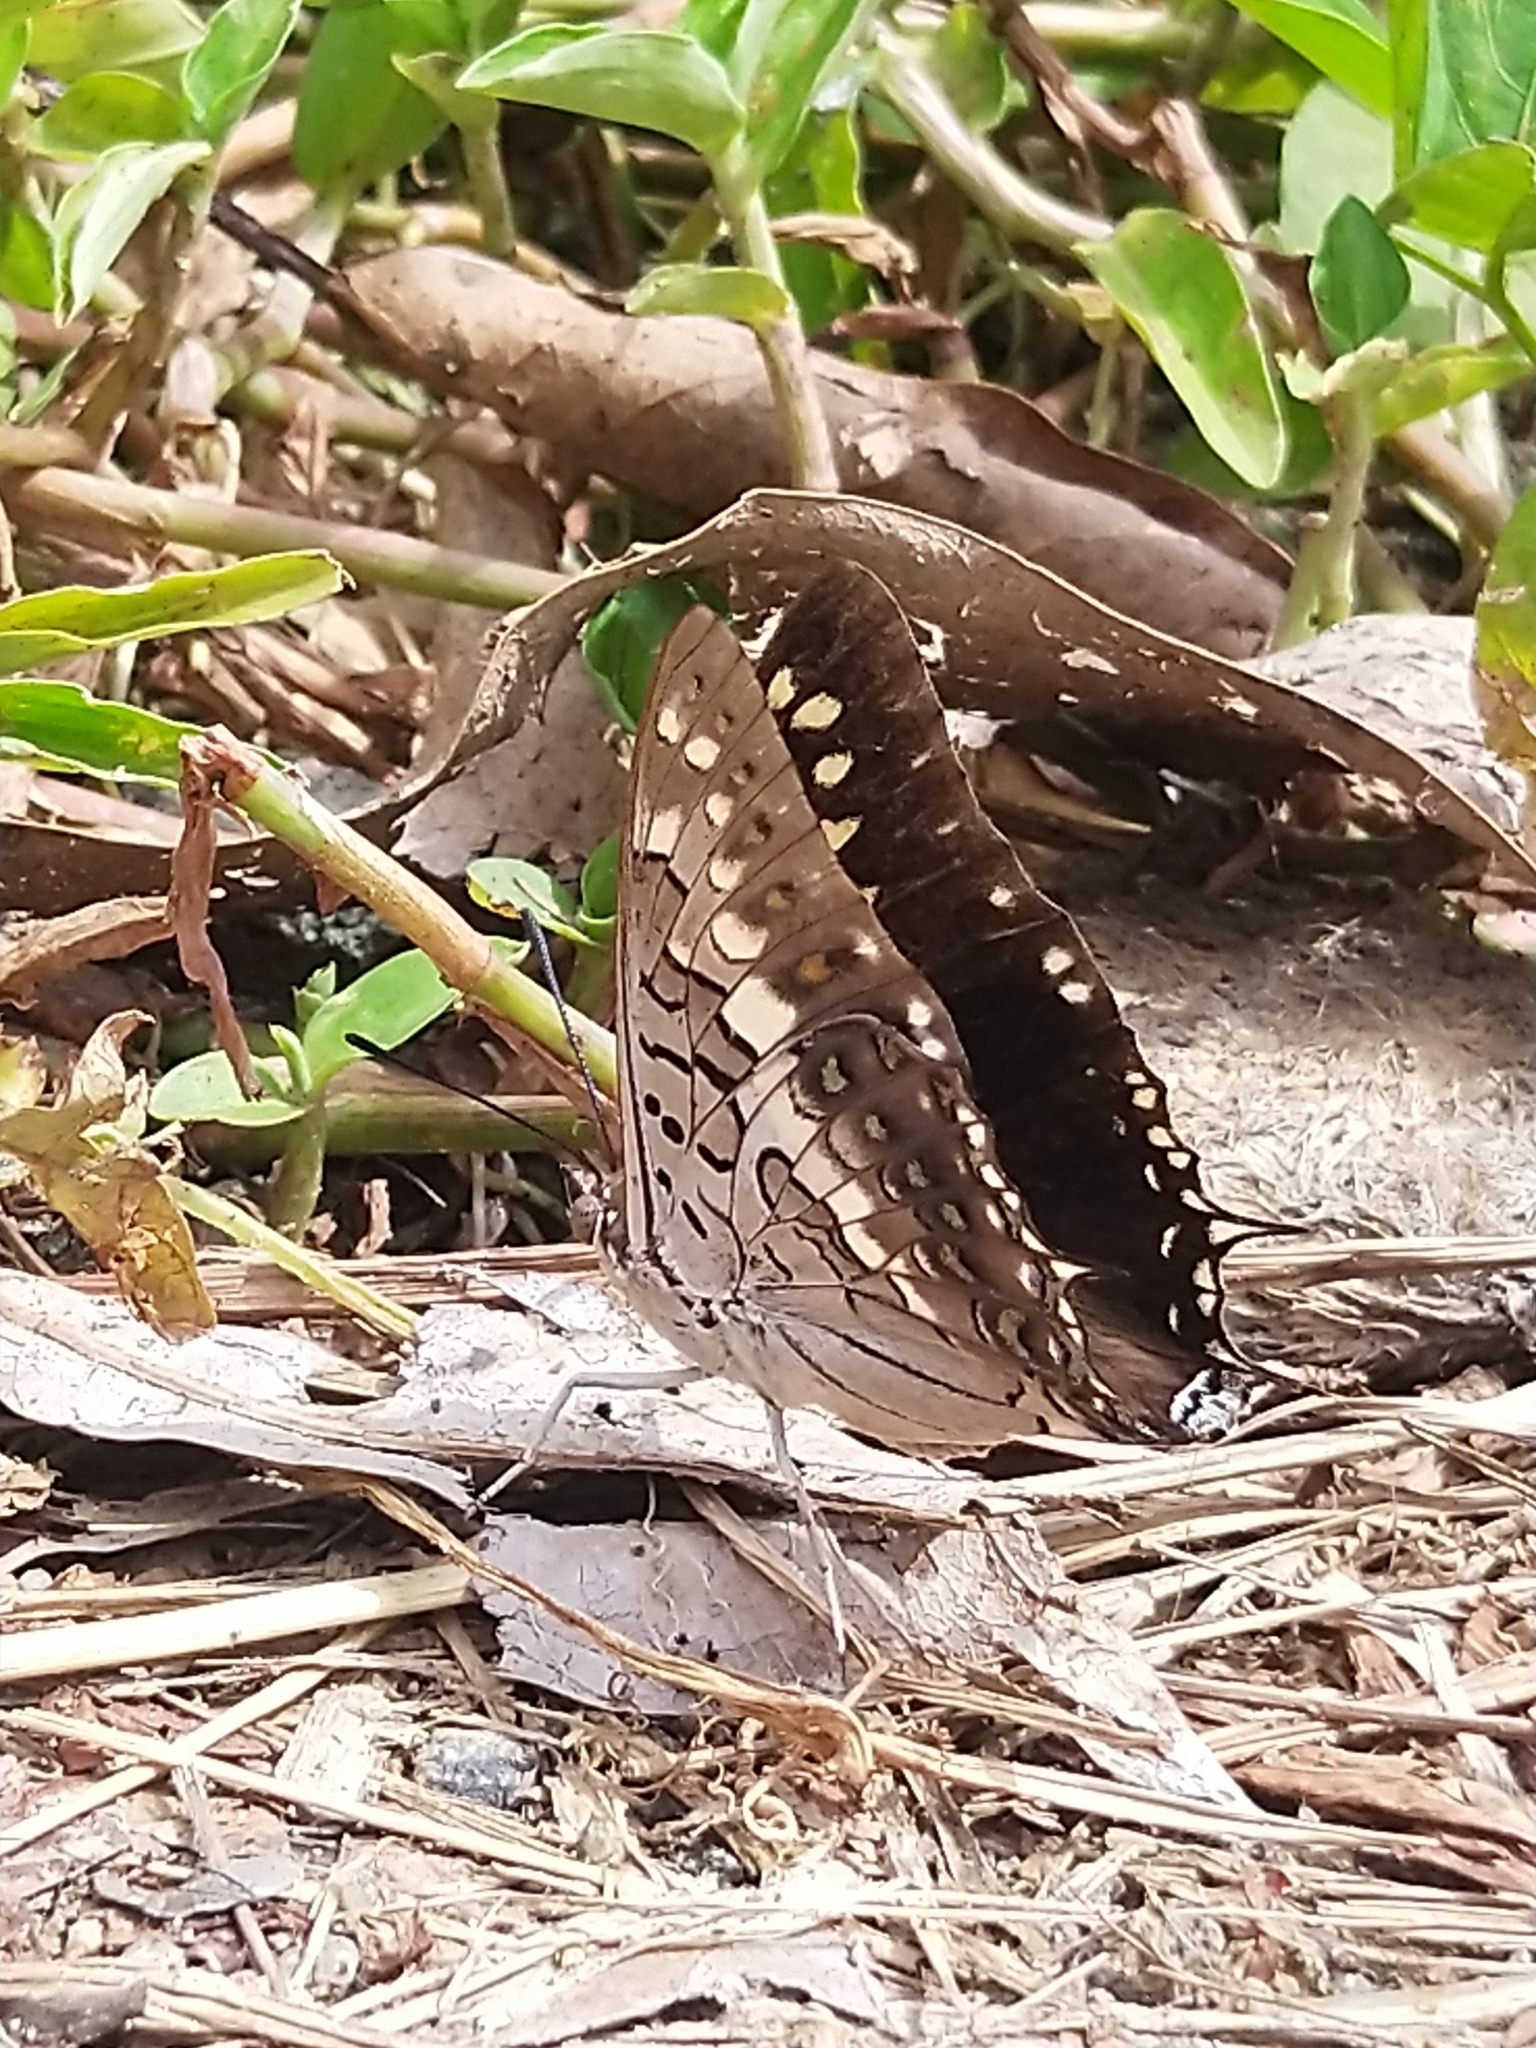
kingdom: Animalia
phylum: Arthropoda
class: Insecta
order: Lepidoptera
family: Nymphalidae
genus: Charaxes
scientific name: Charaxes solon
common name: Black rajah
